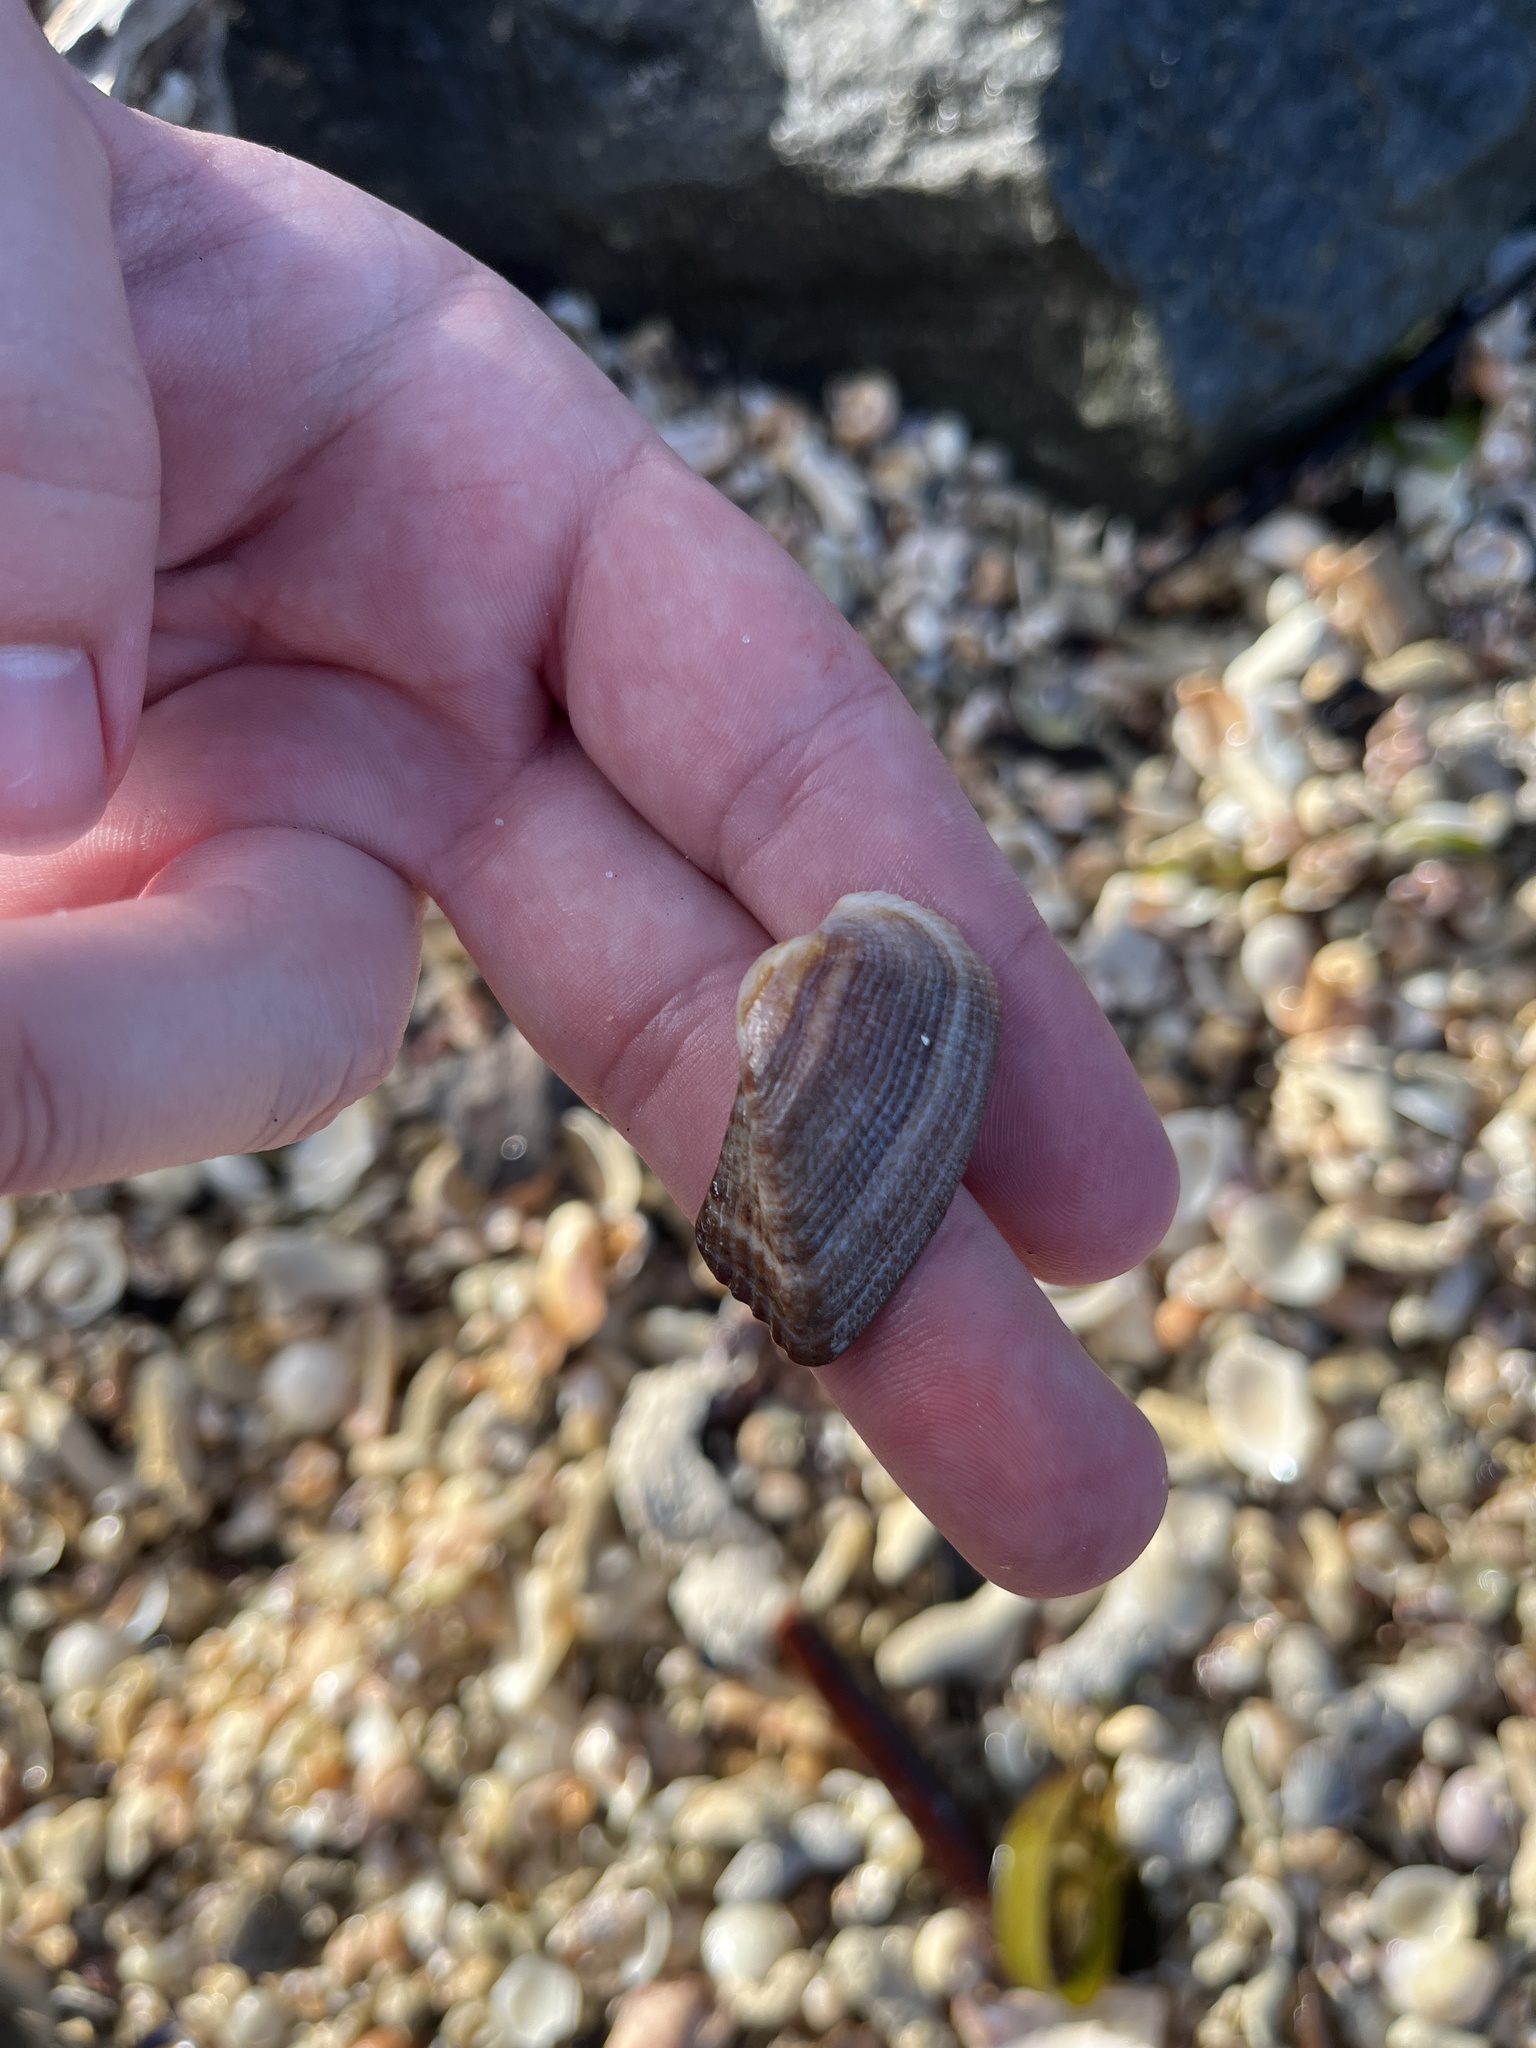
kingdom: Animalia
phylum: Mollusca
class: Bivalvia
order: Arcida
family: Arcidae
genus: Lamarcka
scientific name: Lamarcka imbricata
